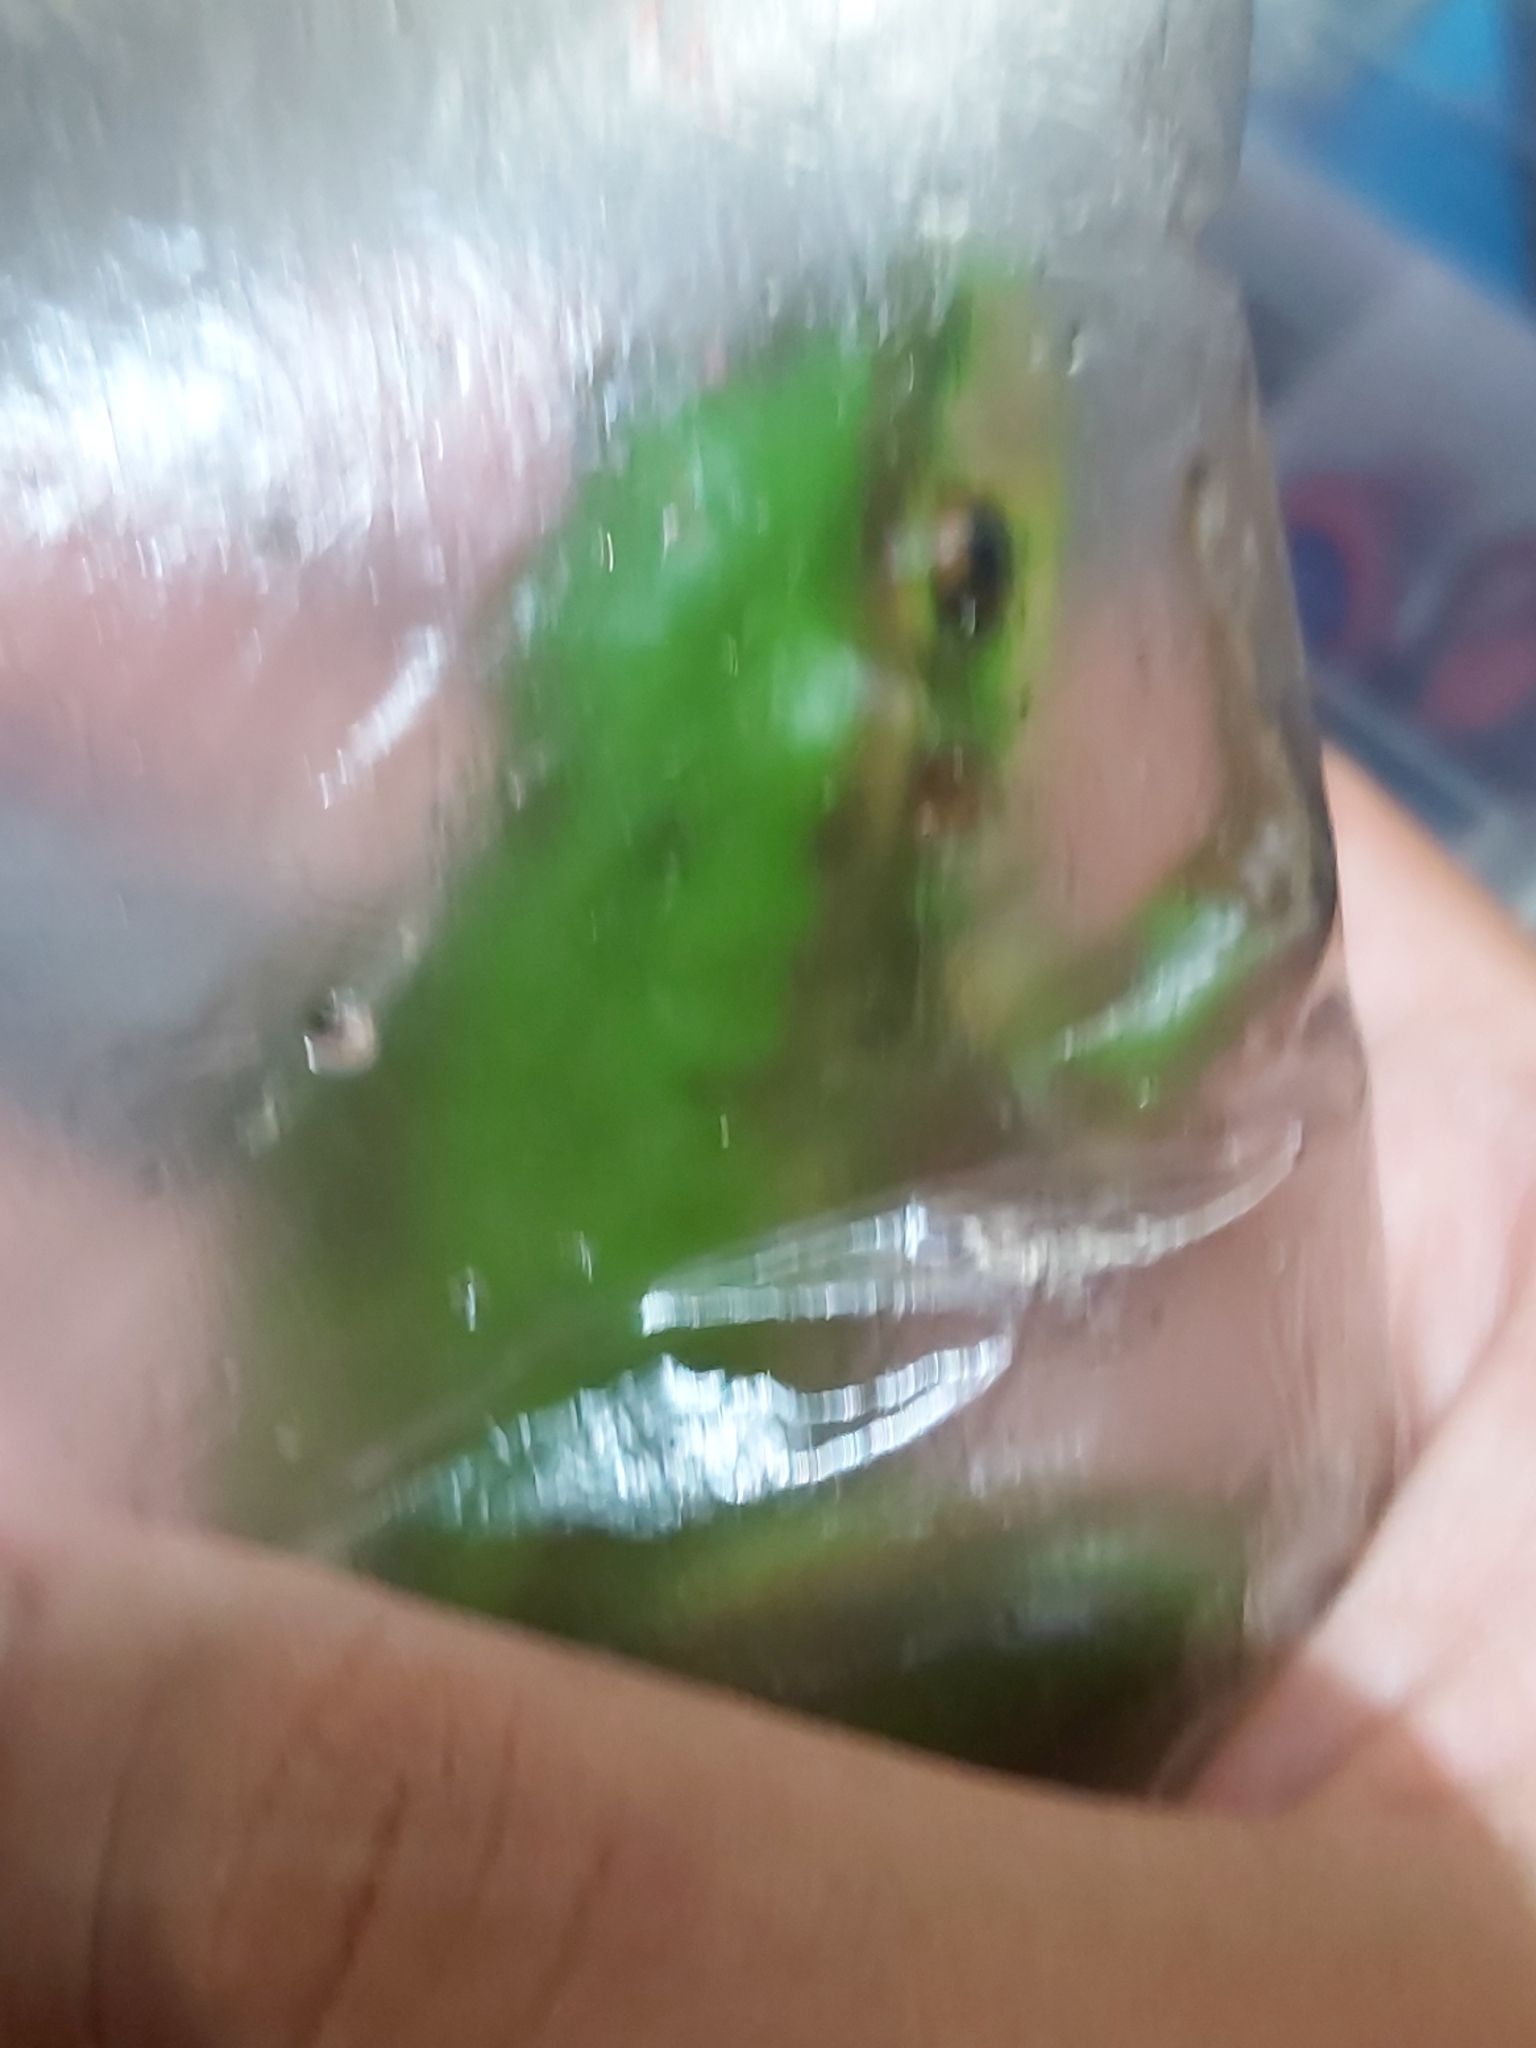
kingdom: Animalia
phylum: Chordata
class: Amphibia
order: Anura
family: Pelodryadidae
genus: Ranoidea
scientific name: Ranoidea aurea
